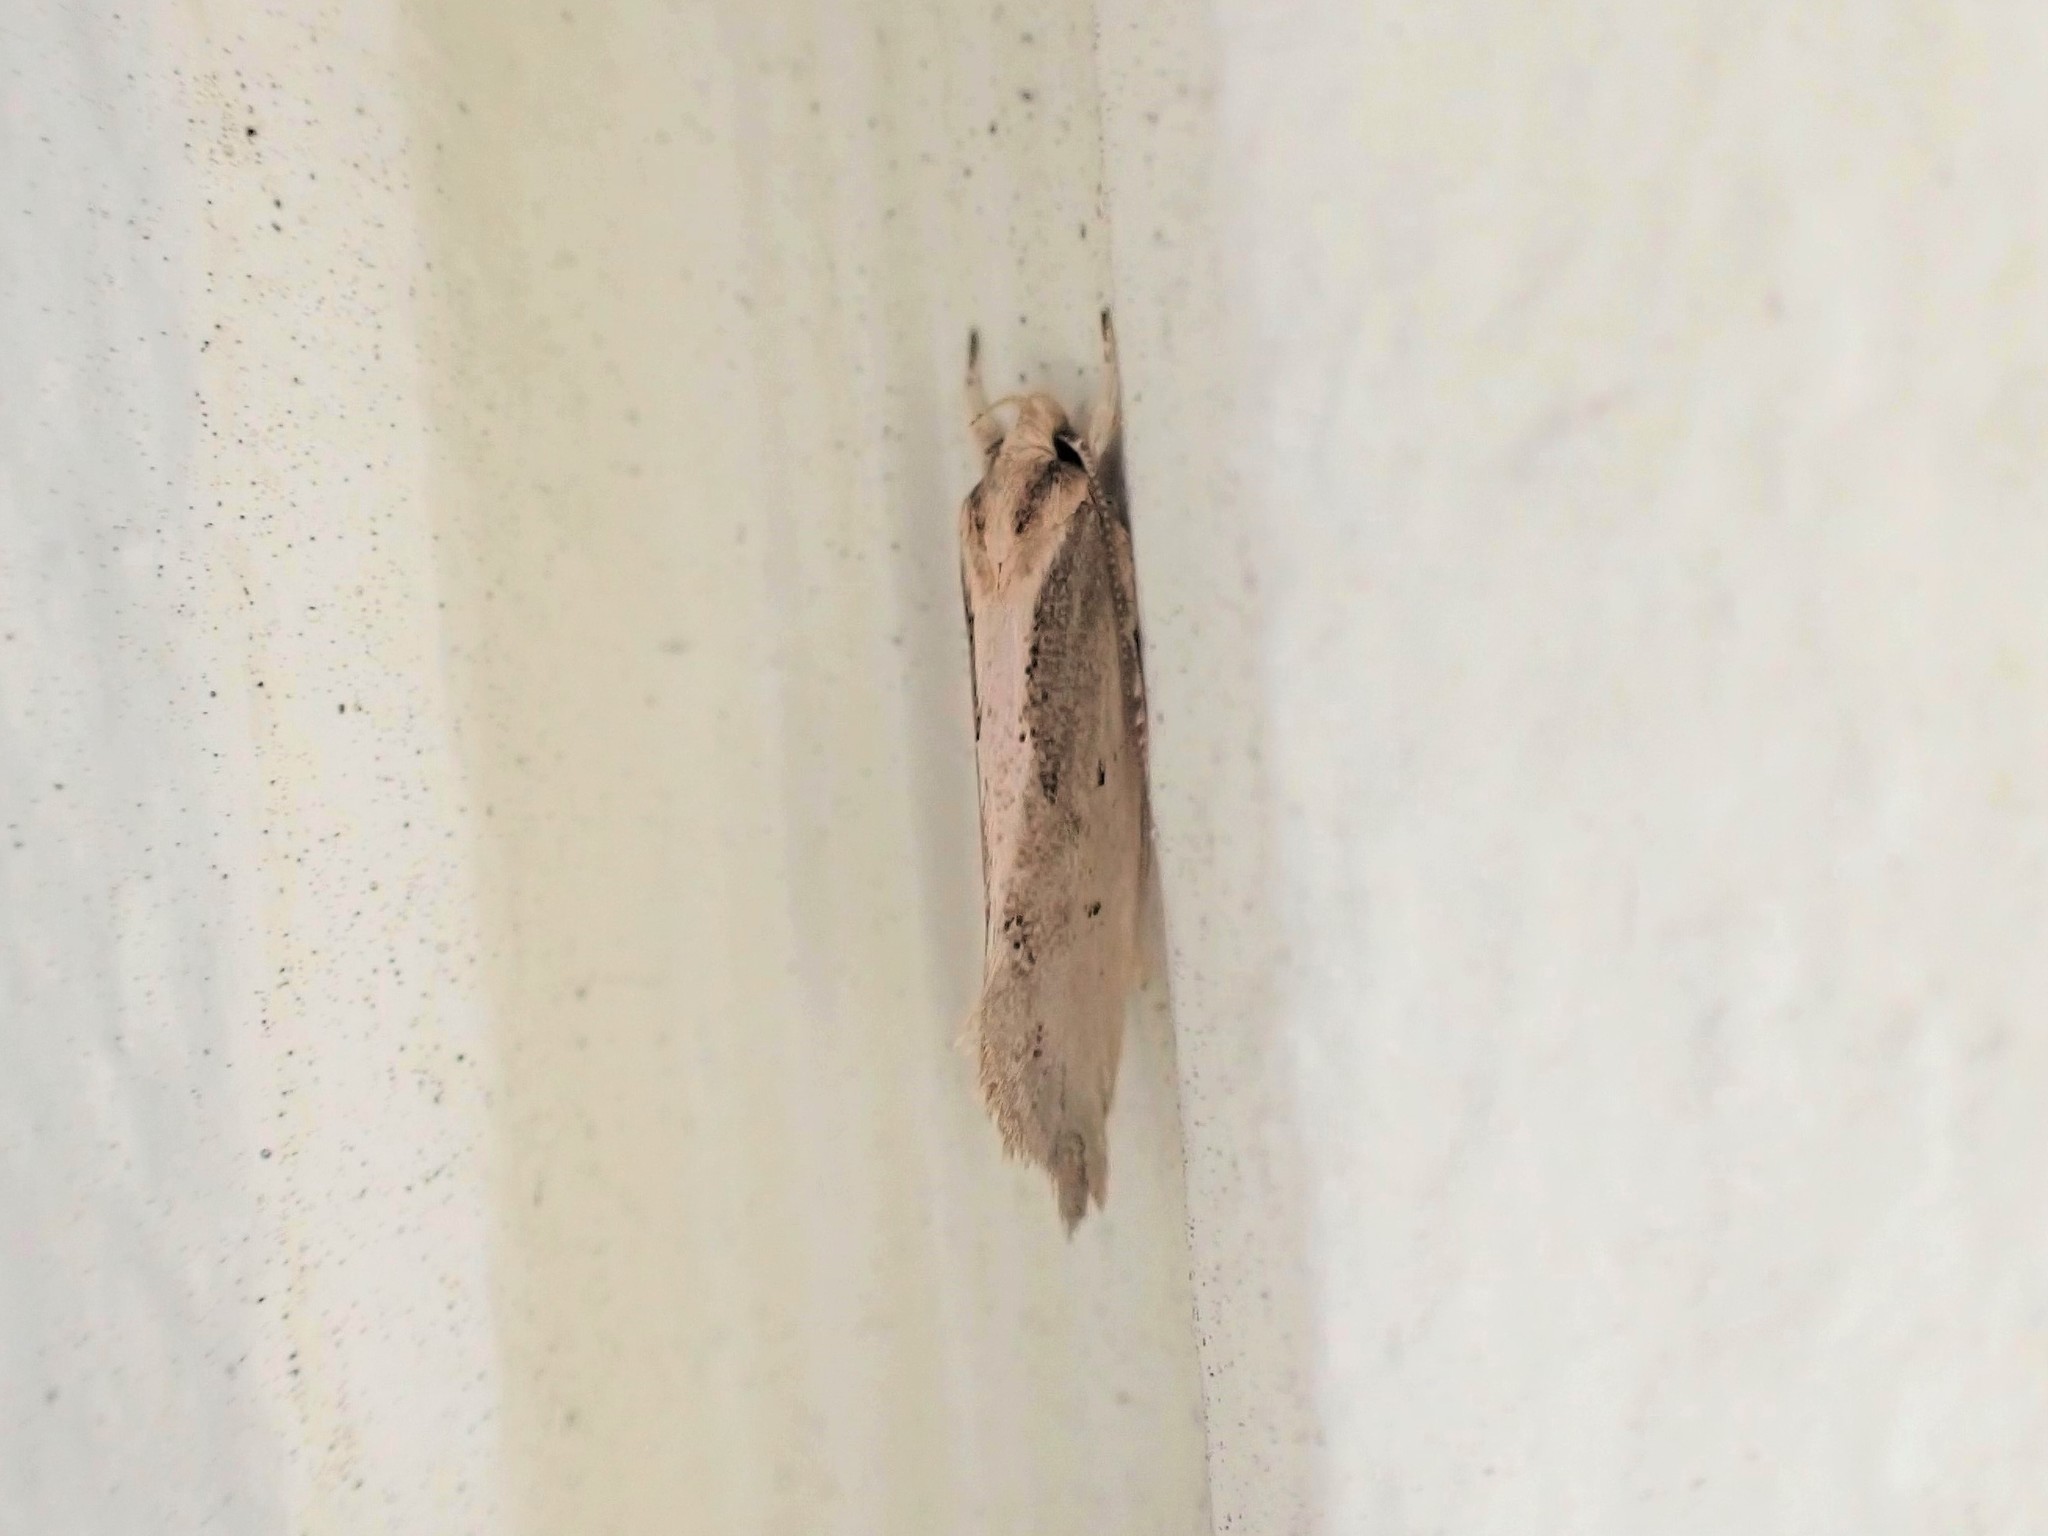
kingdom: Animalia
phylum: Arthropoda
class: Insecta
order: Lepidoptera
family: Oecophoridae
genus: Tingena
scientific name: Tingena chloradelpha
